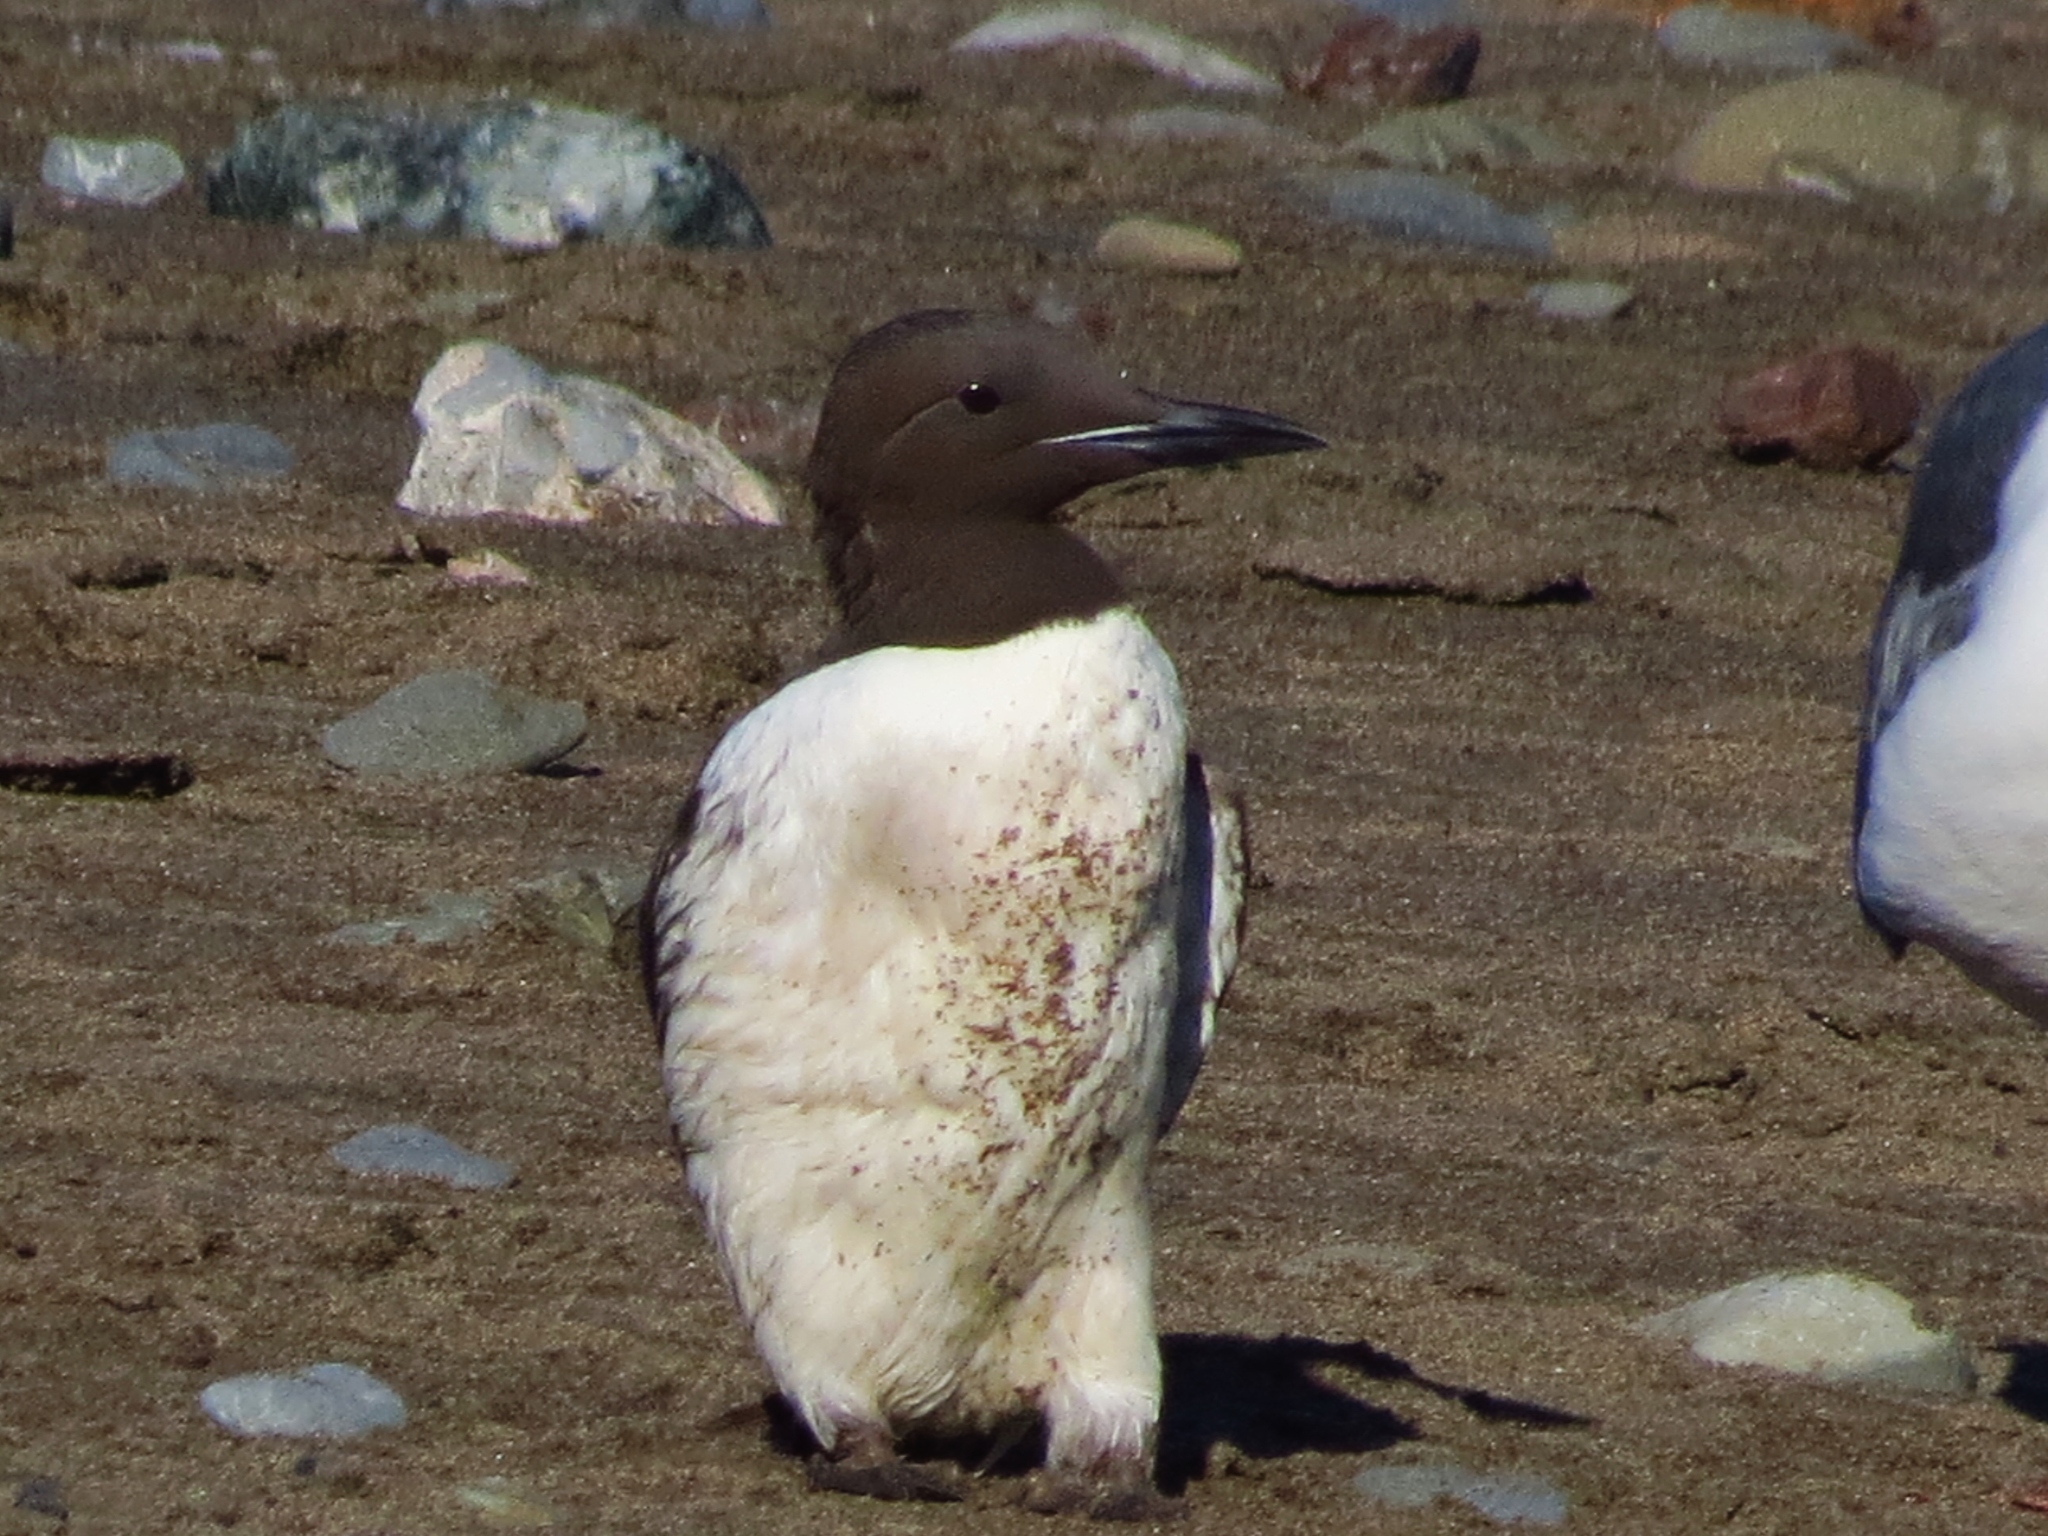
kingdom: Animalia
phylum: Chordata
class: Aves
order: Charadriiformes
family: Alcidae
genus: Uria
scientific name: Uria aalge
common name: Common murre
